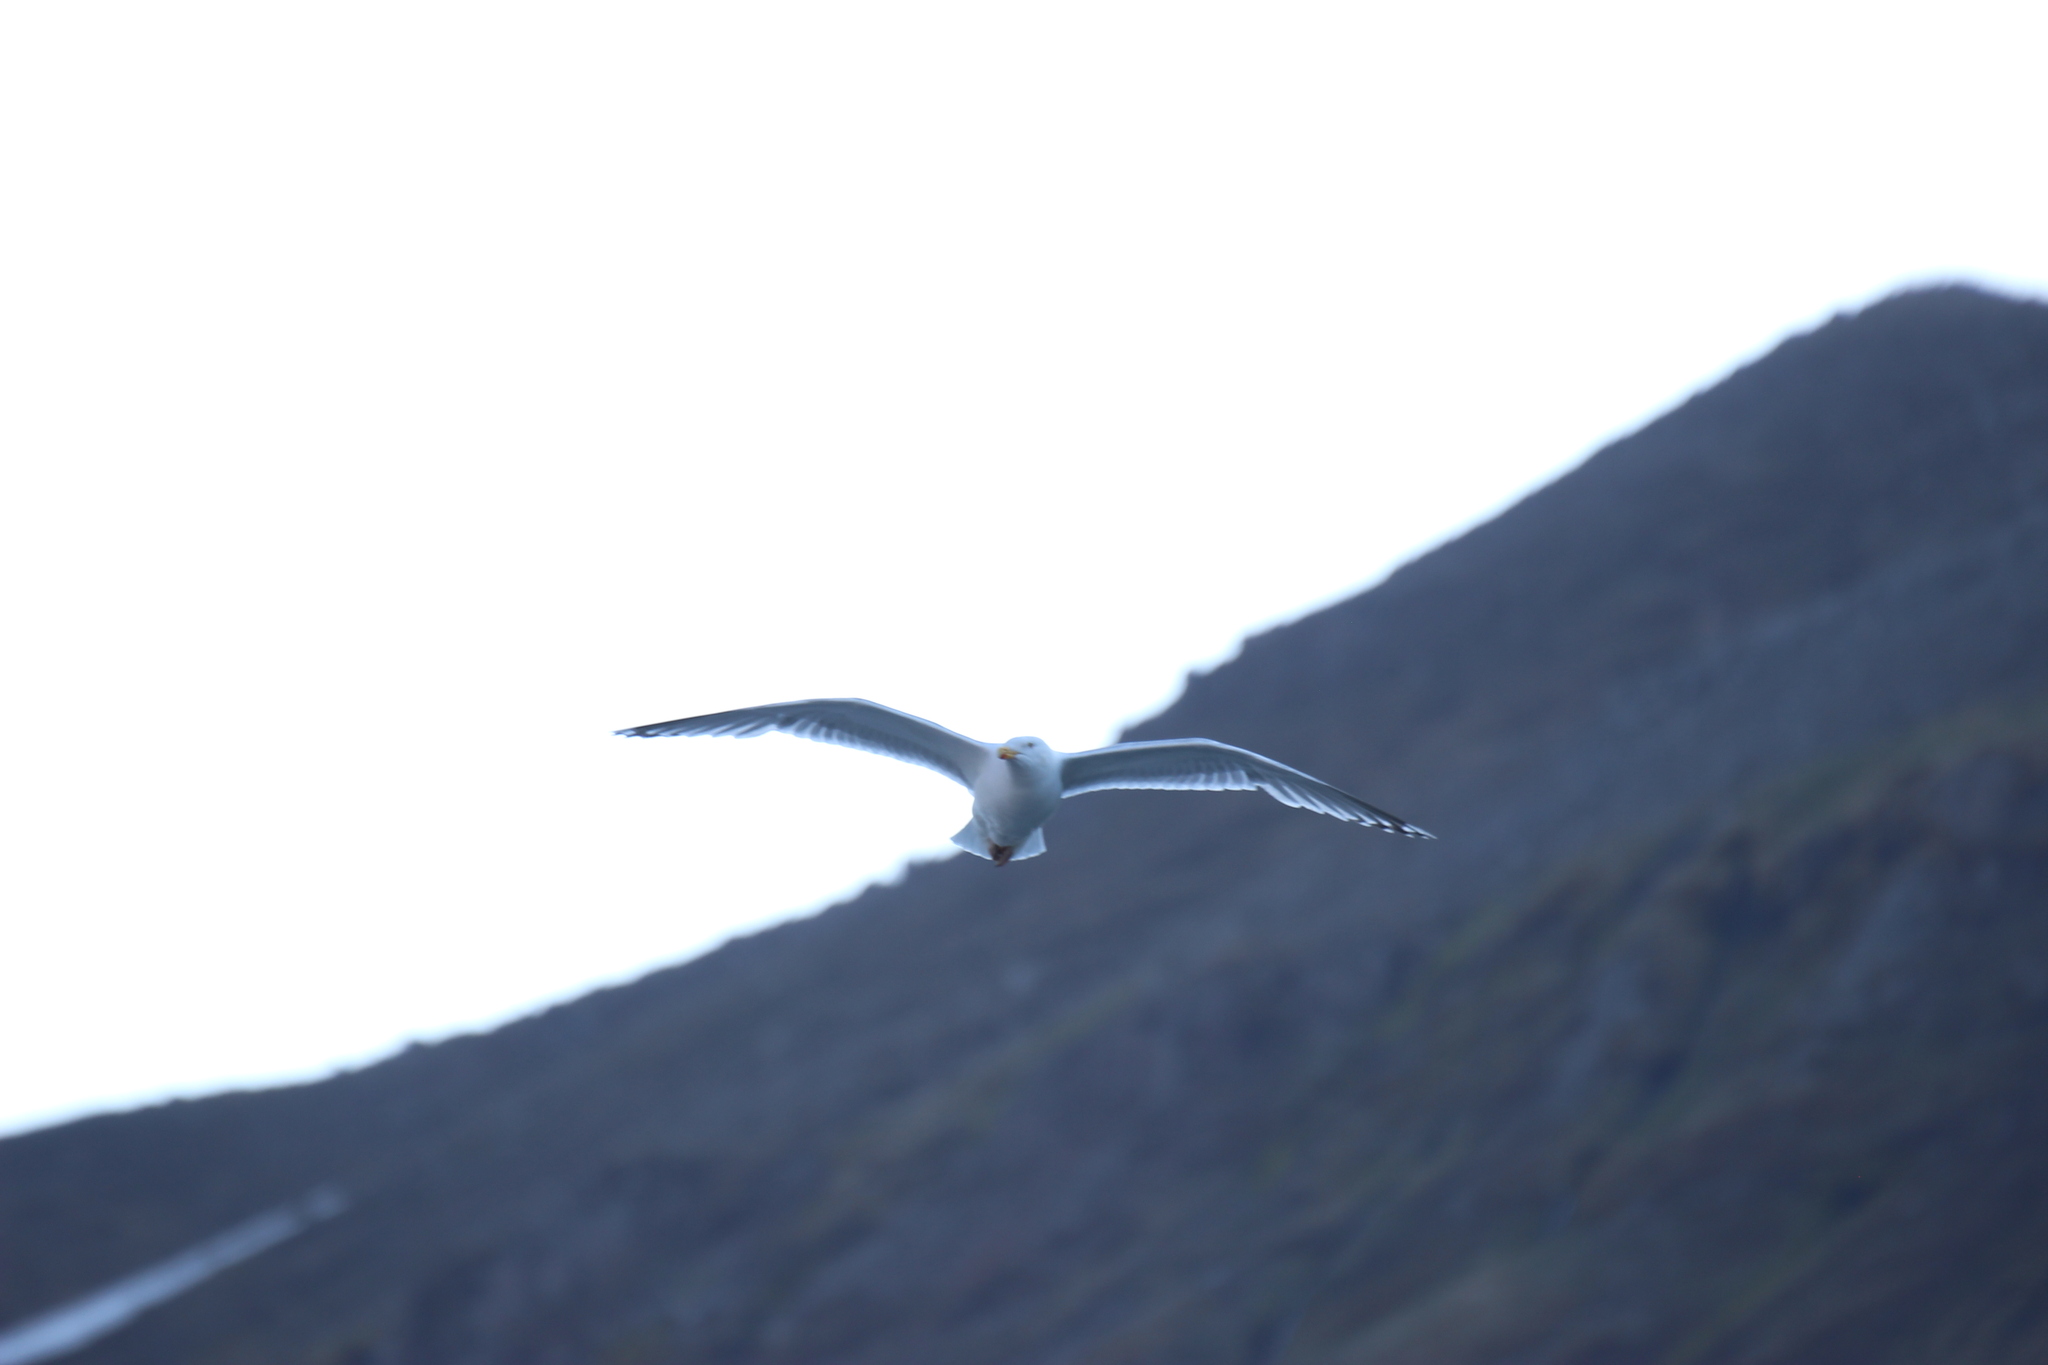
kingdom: Animalia
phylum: Chordata
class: Aves
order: Charadriiformes
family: Laridae
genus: Larus
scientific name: Larus argentatus
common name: Herring gull
